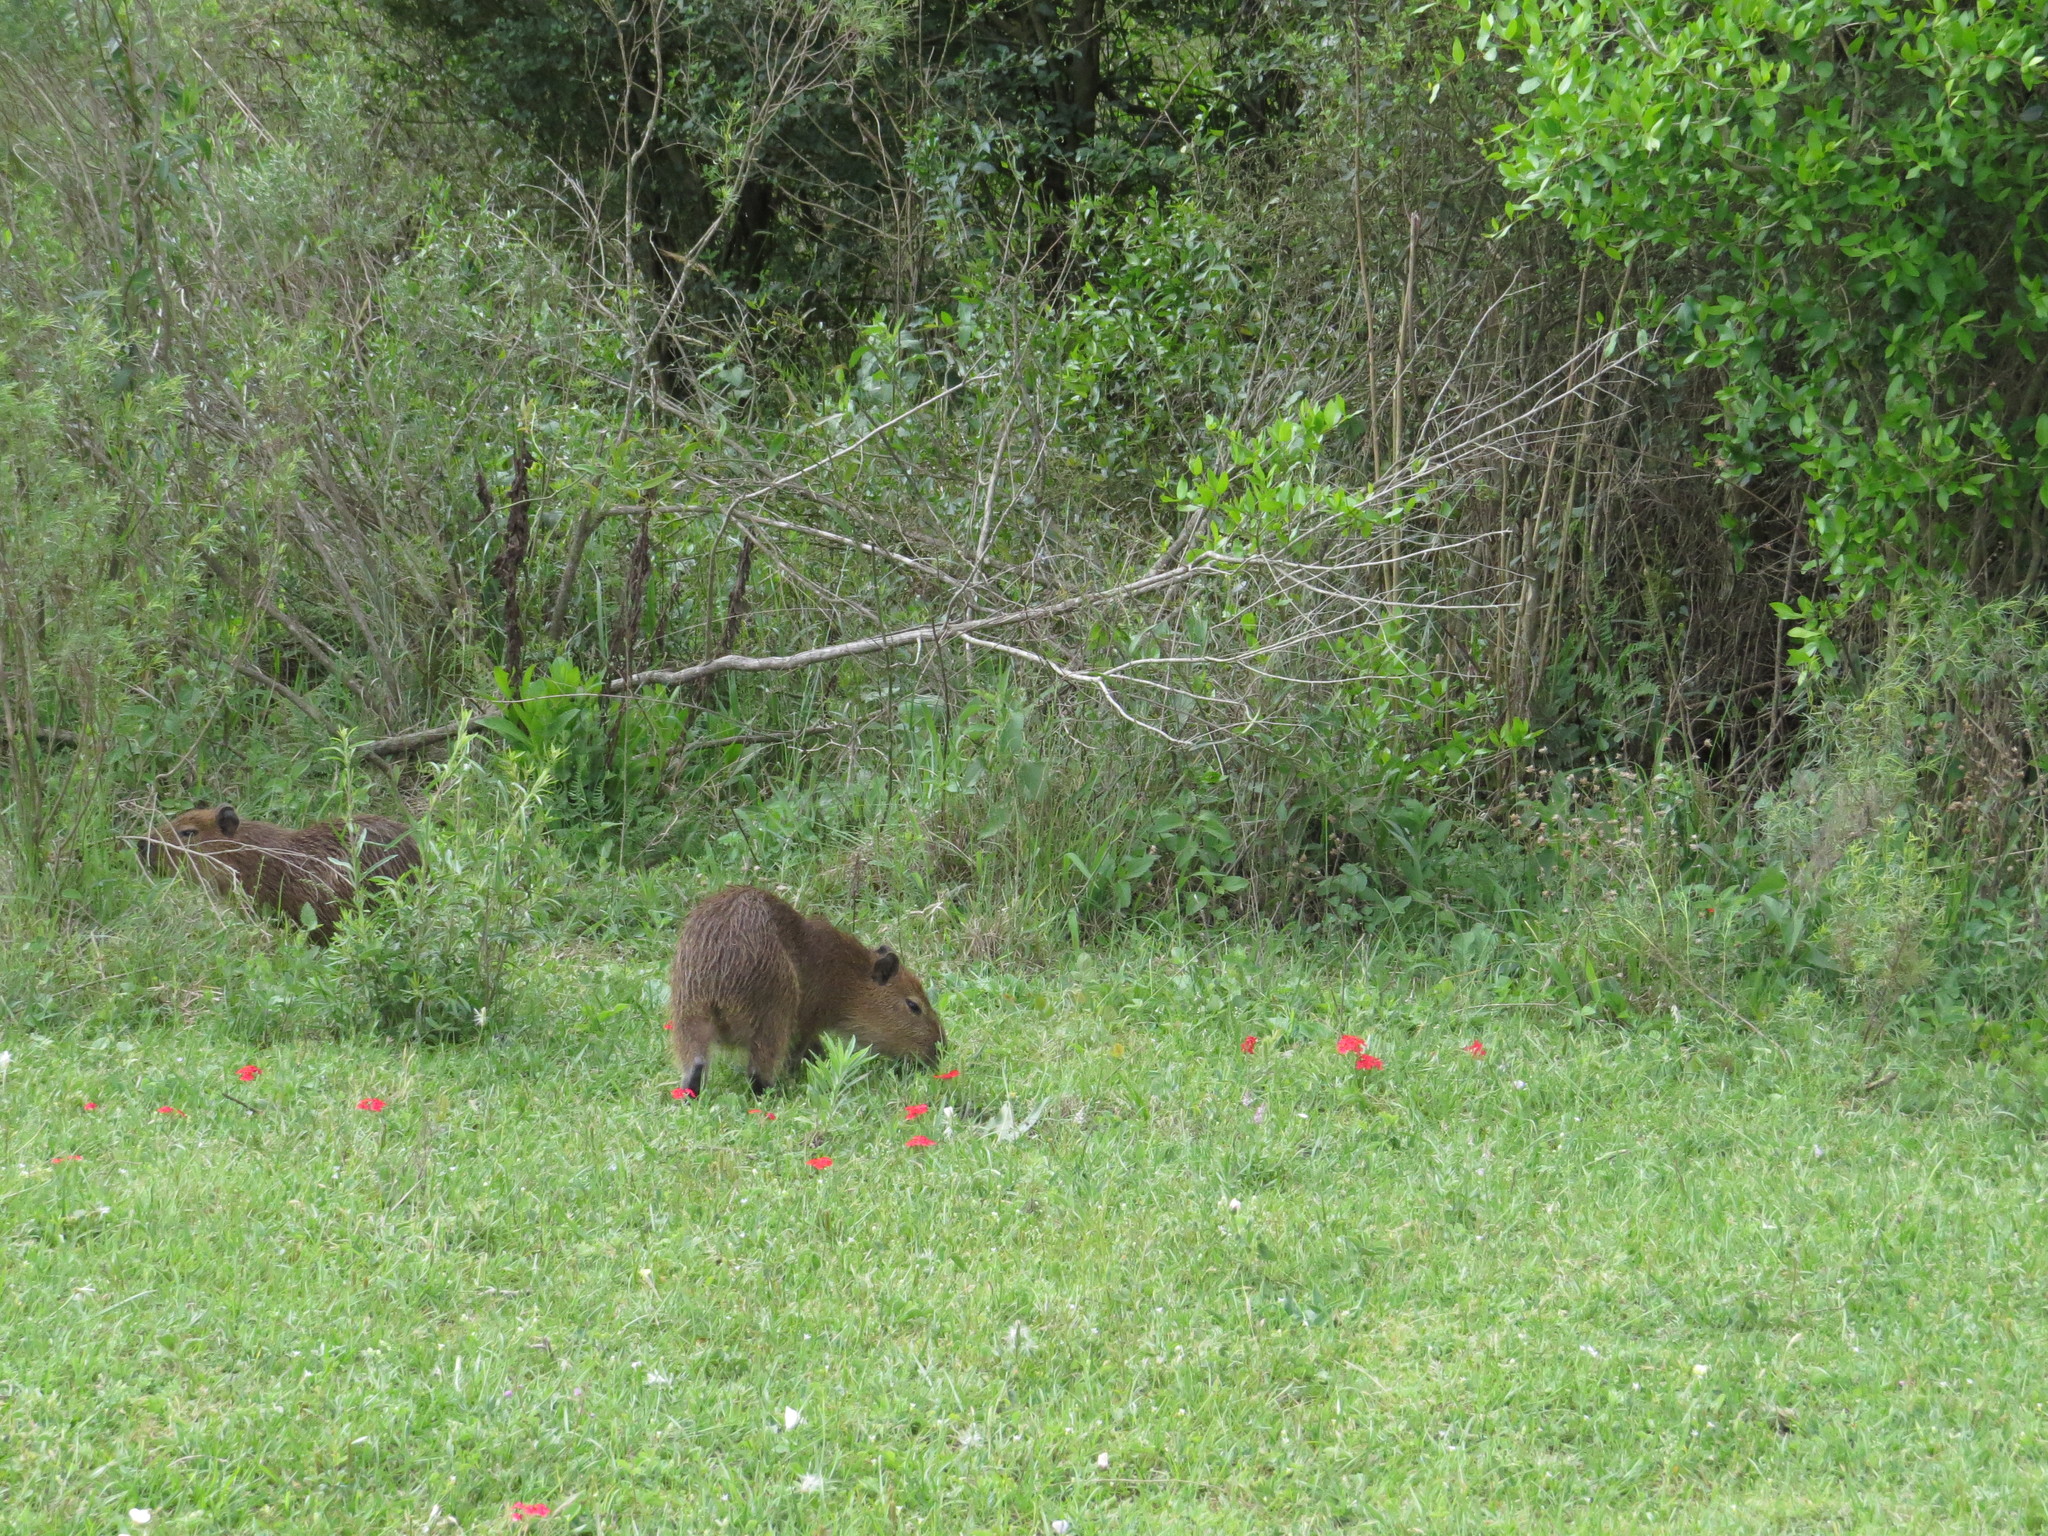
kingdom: Animalia
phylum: Chordata
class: Mammalia
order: Rodentia
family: Caviidae
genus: Hydrochoerus
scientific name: Hydrochoerus hydrochaeris
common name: Capybara
